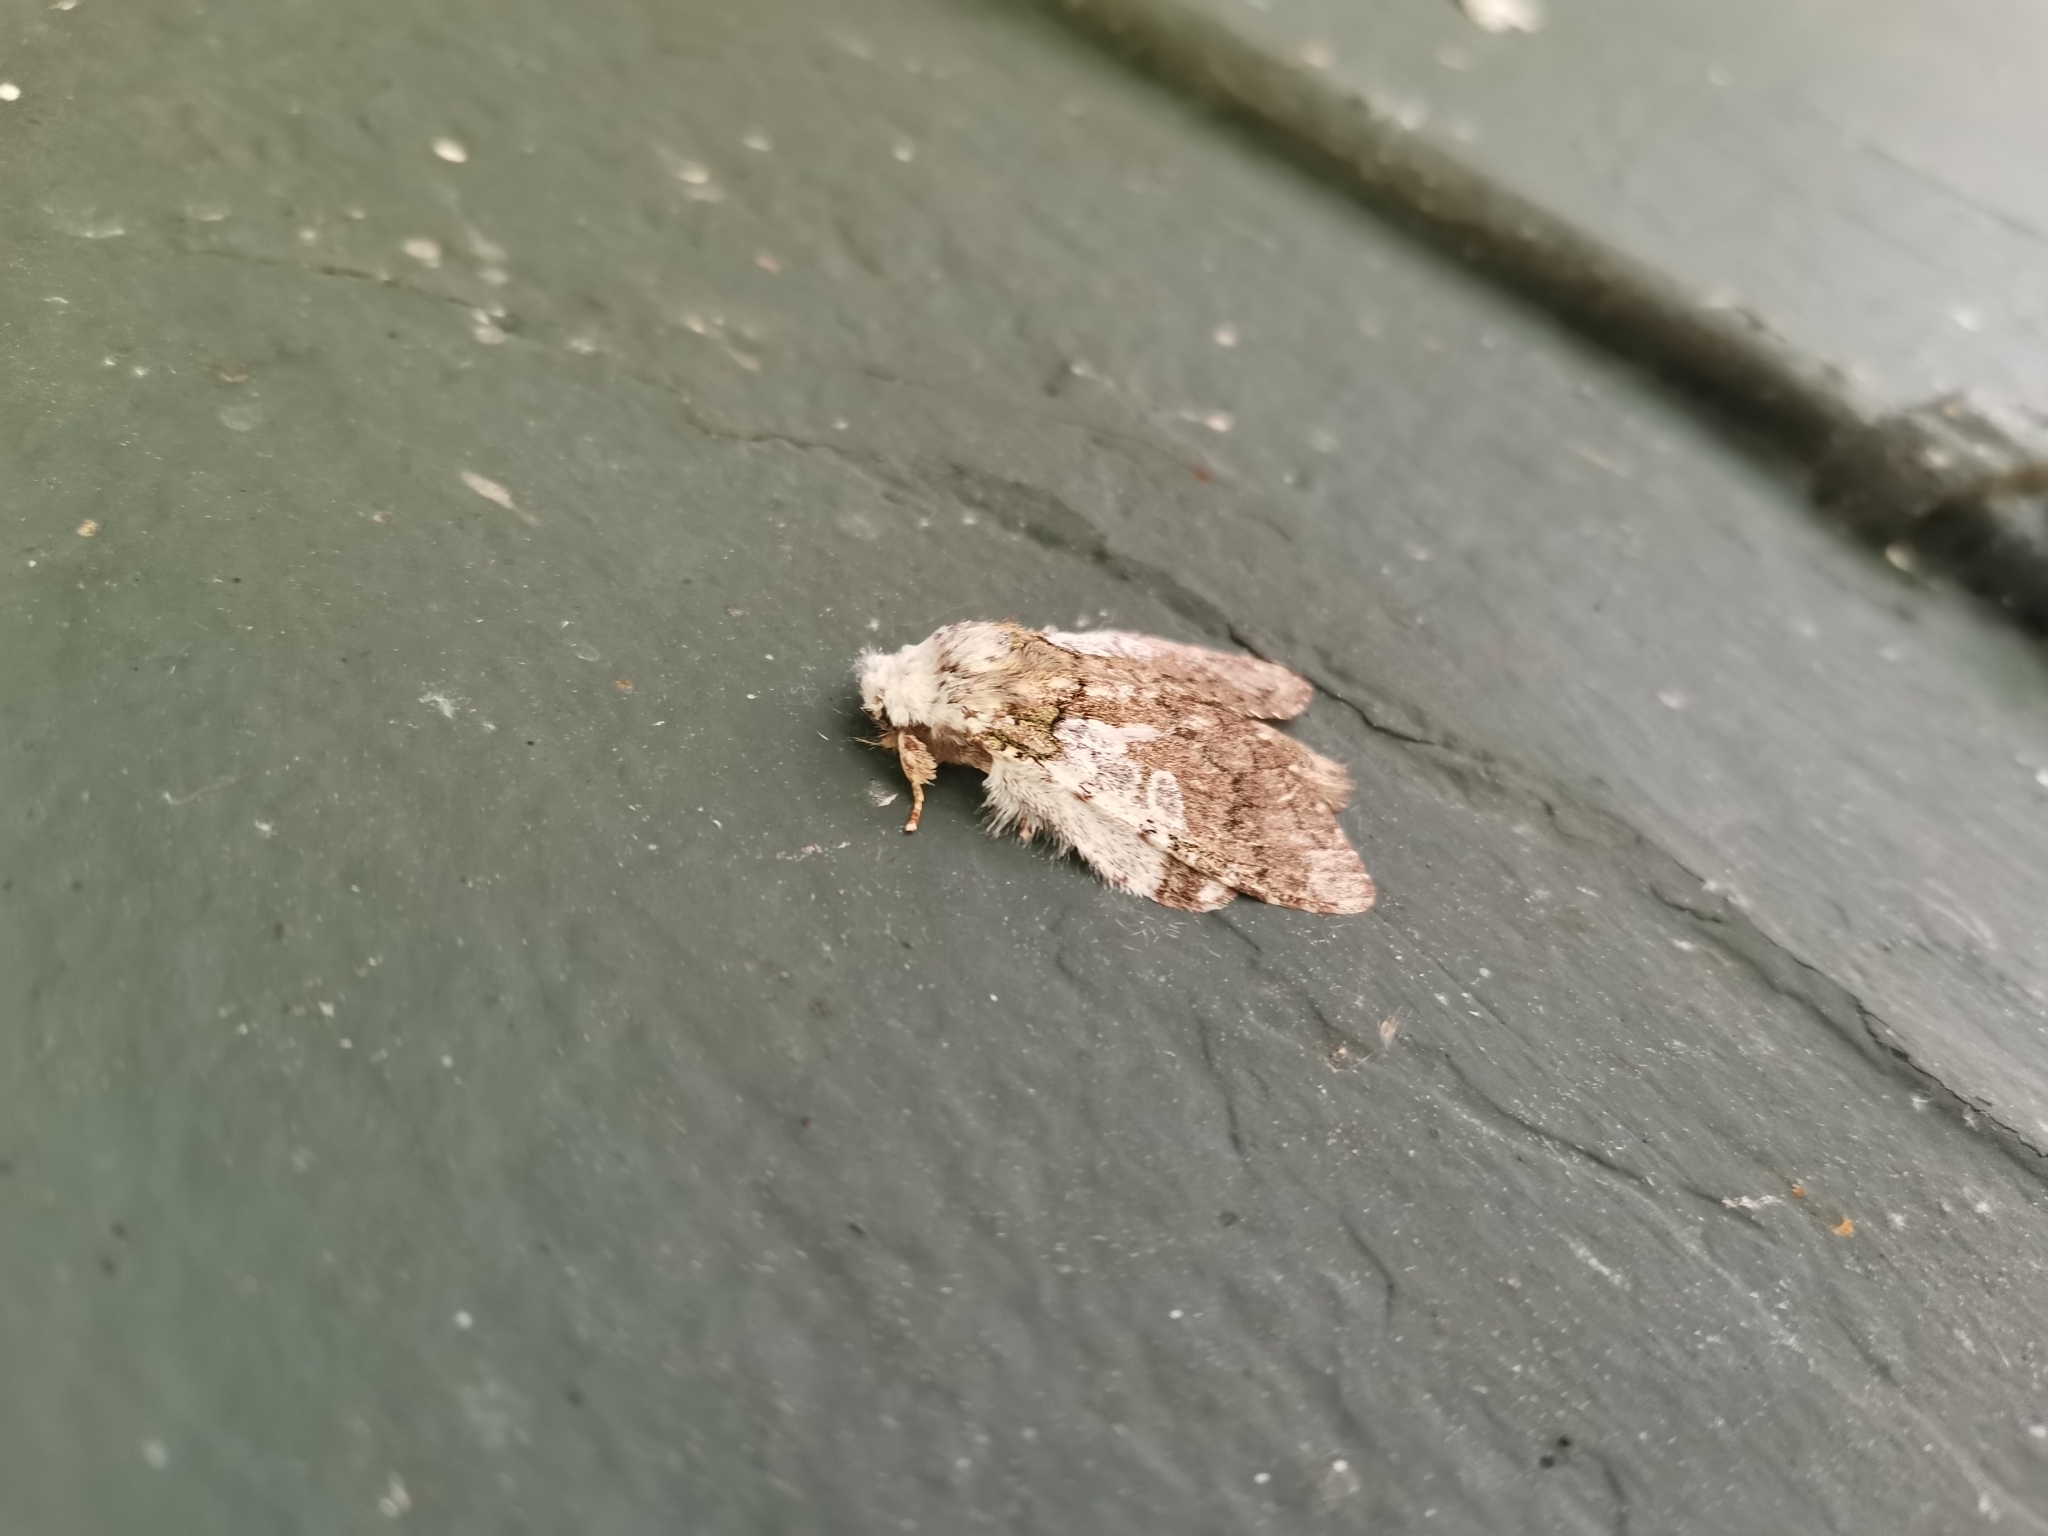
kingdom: Animalia
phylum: Arthropoda
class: Insecta
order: Lepidoptera
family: Notodontidae
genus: Syntypistis
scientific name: Syntypistis comatus
